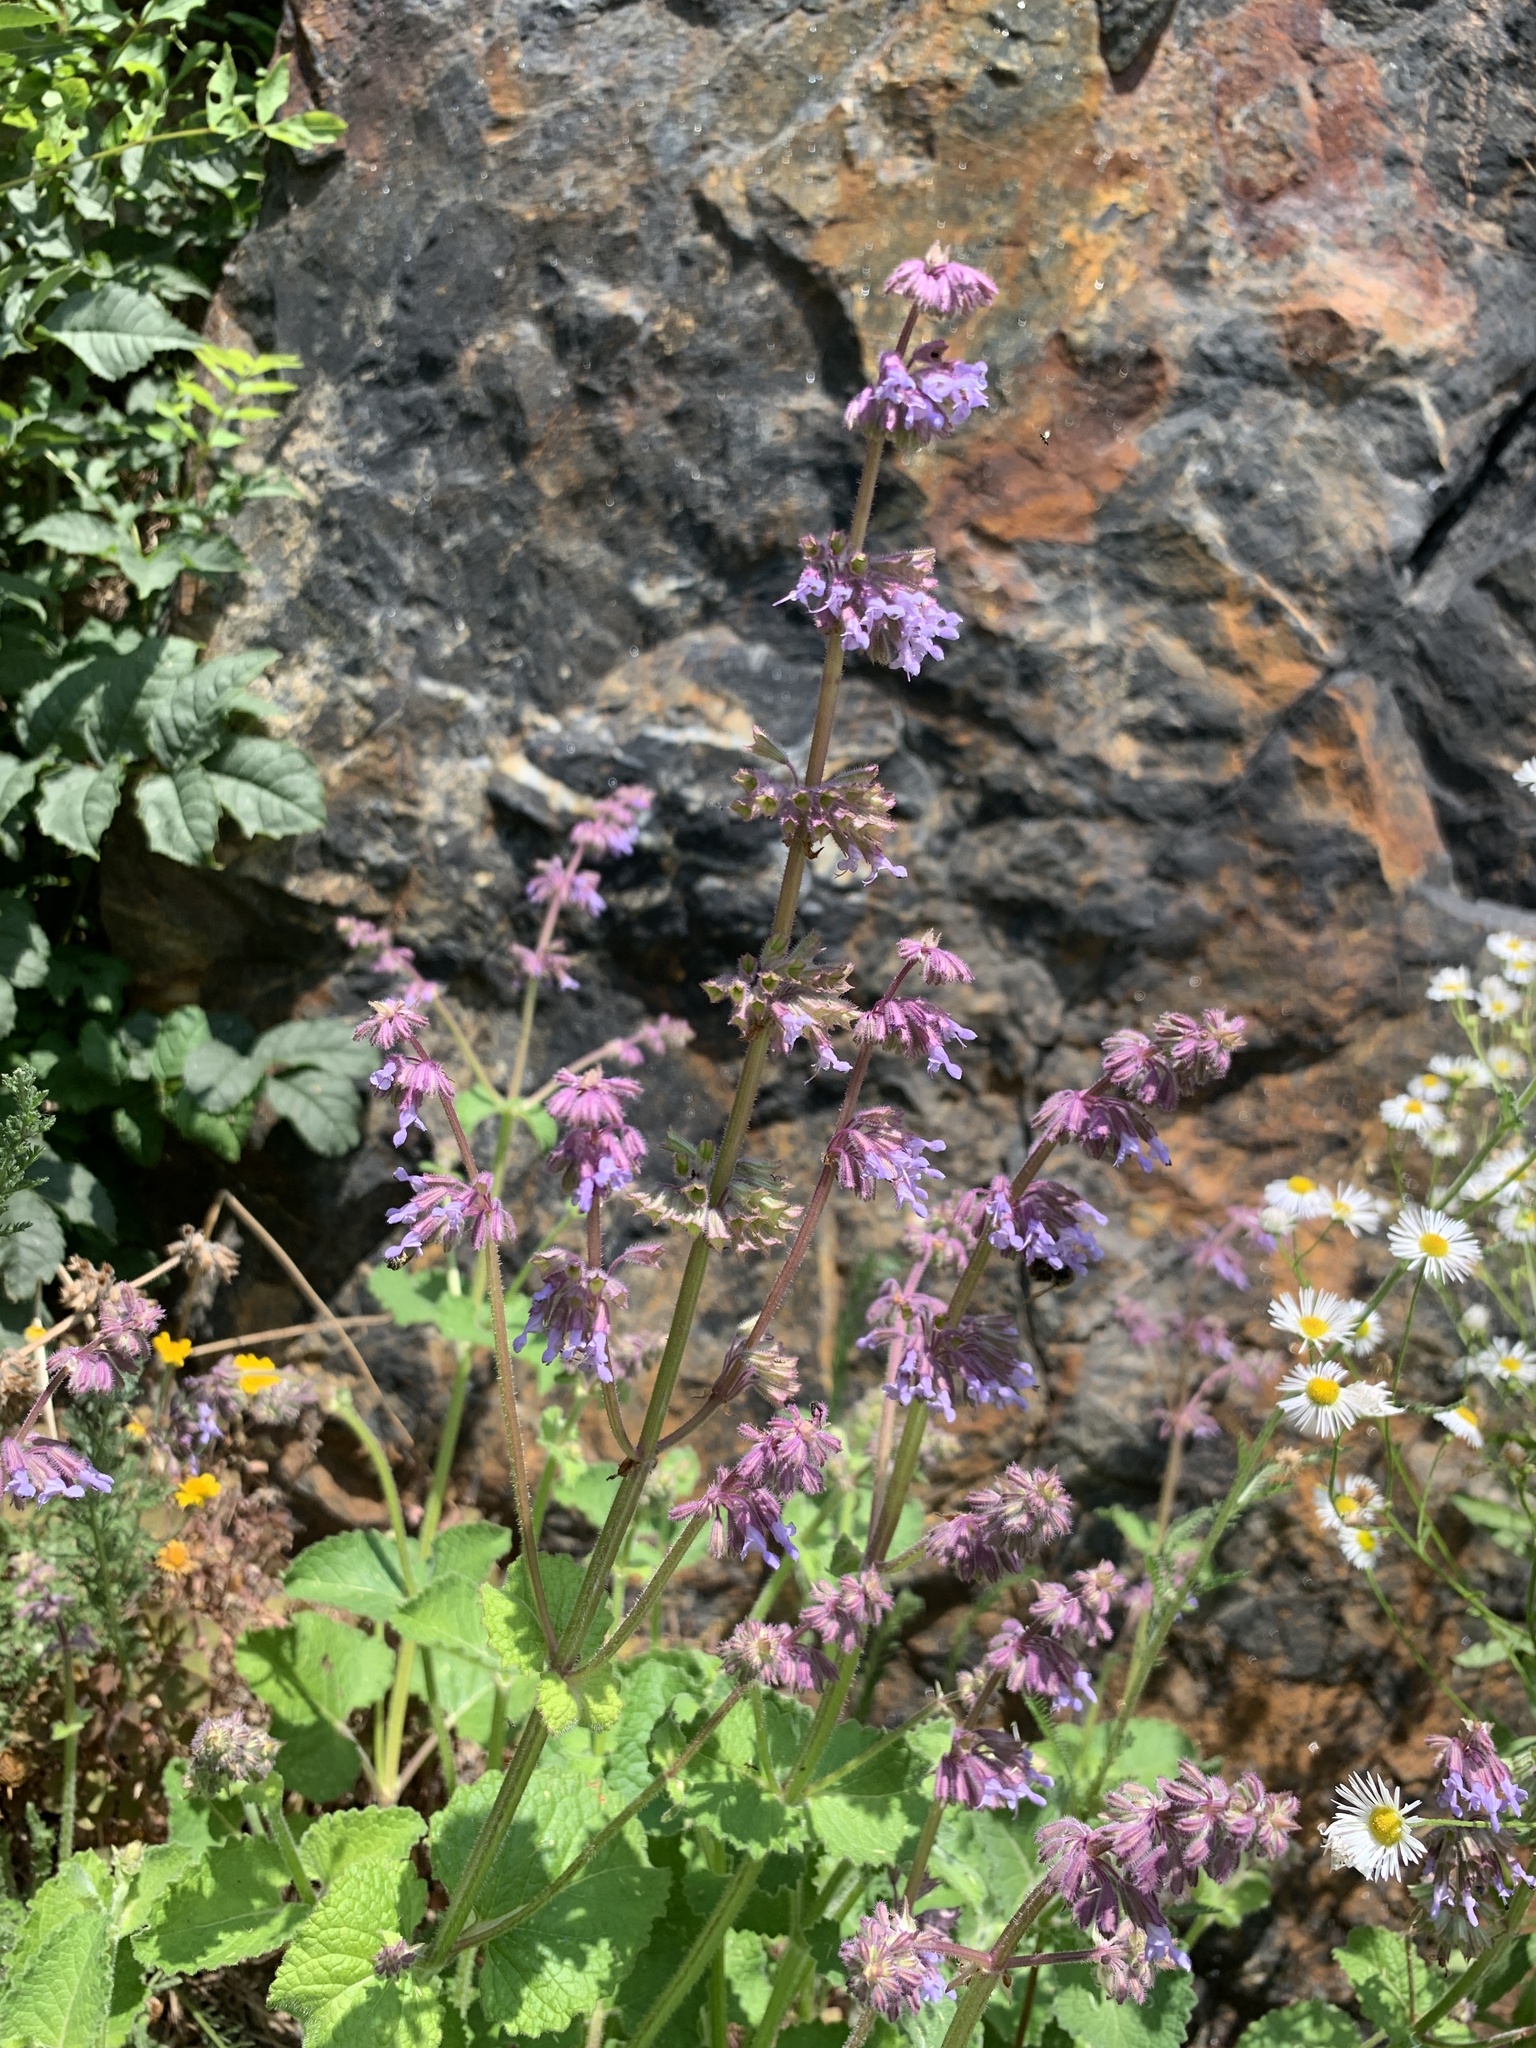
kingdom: Plantae
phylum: Tracheophyta
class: Magnoliopsida
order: Lamiales
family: Lamiaceae
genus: Salvia
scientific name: Salvia verticillata
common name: Whorled clary
